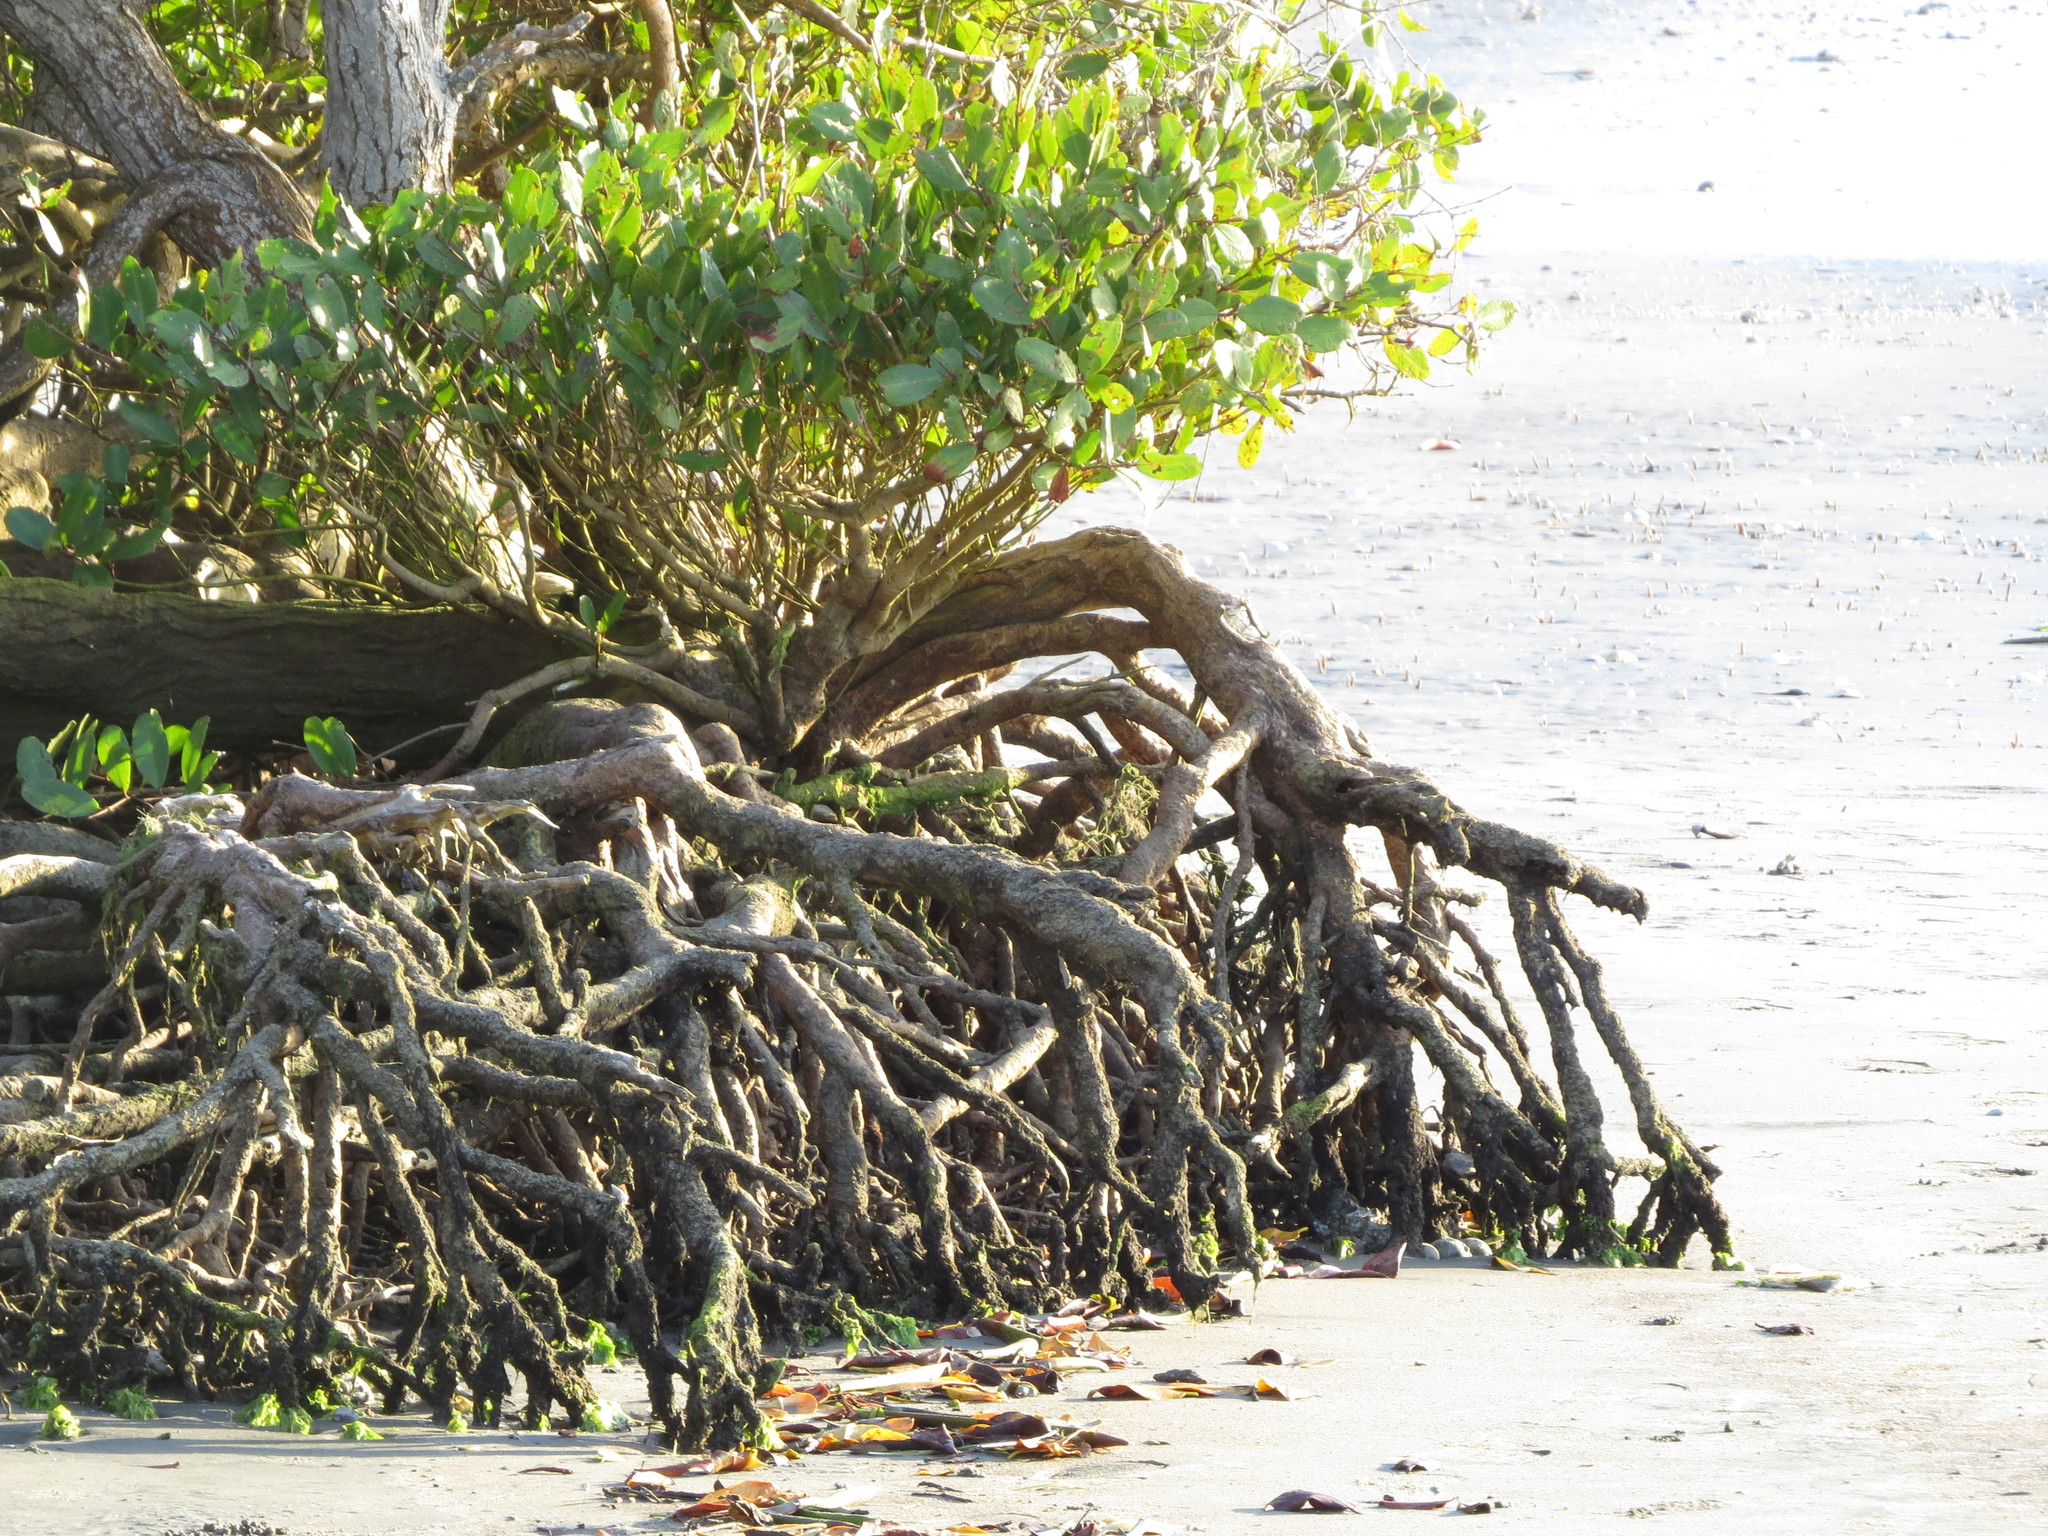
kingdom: Plantae
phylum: Tracheophyta
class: Magnoliopsida
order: Malpighiales
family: Rhizophoraceae
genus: Rhizophora
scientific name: Rhizophora mangle
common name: Red mangrove
